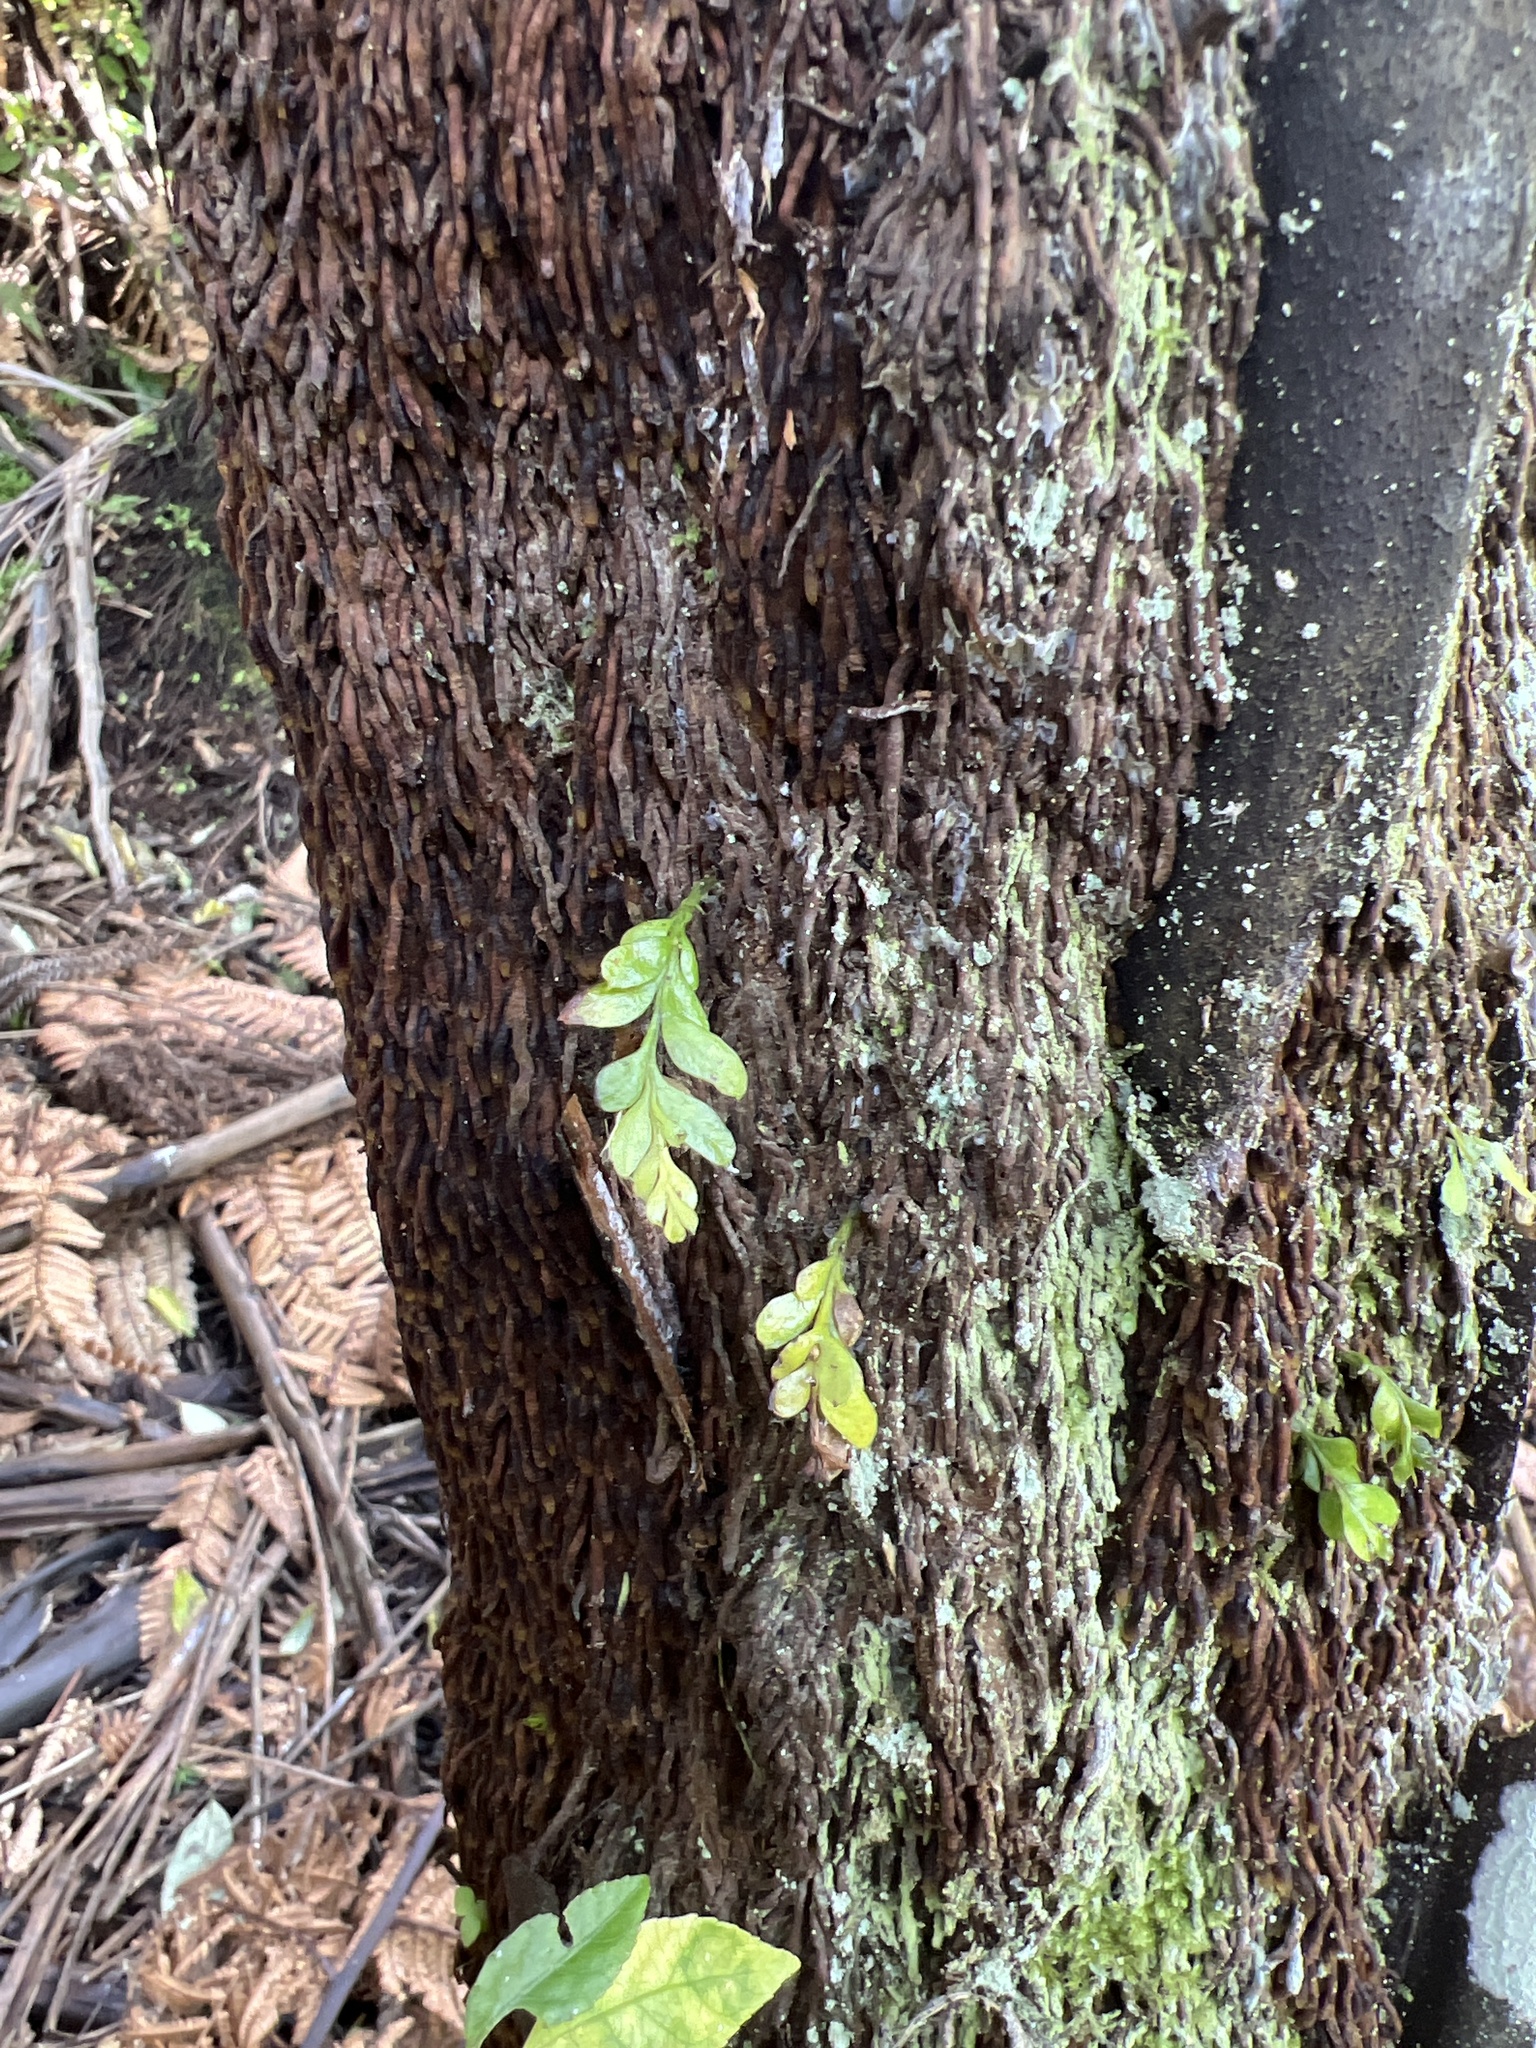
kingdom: Plantae
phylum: Tracheophyta
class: Polypodiopsida
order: Psilotales
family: Psilotaceae
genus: Tmesipteris
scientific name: Tmesipteris lanceolata
